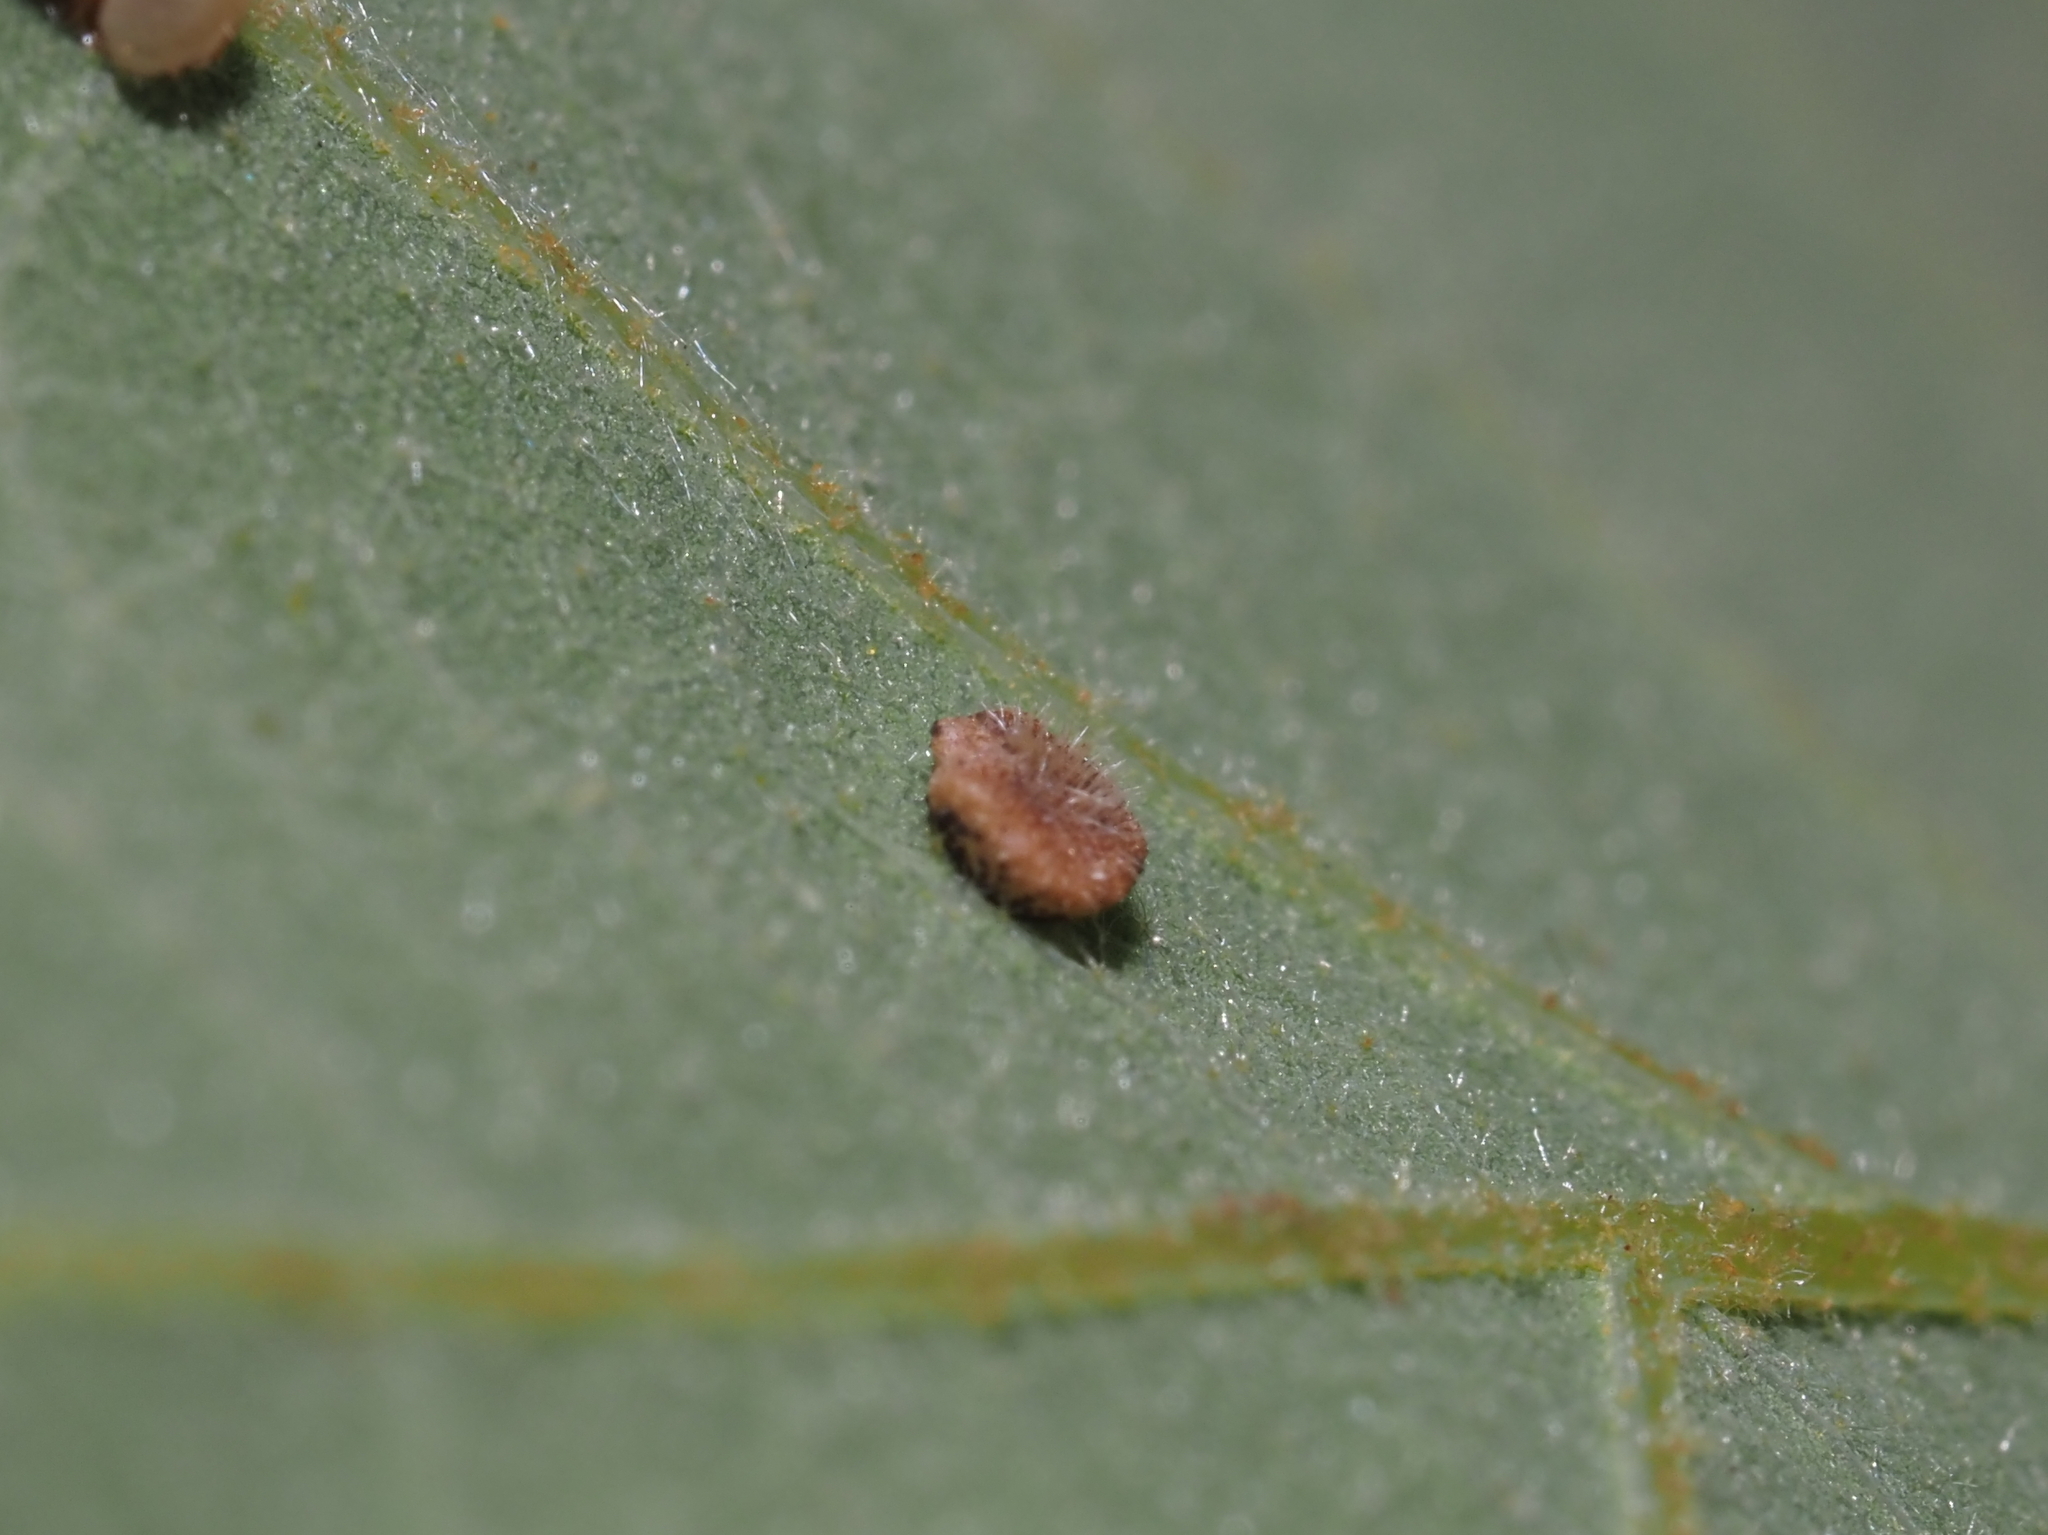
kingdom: Animalia
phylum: Arthropoda
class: Insecta
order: Hymenoptera
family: Cynipidae
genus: Neuroterus
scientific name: Neuroterus
